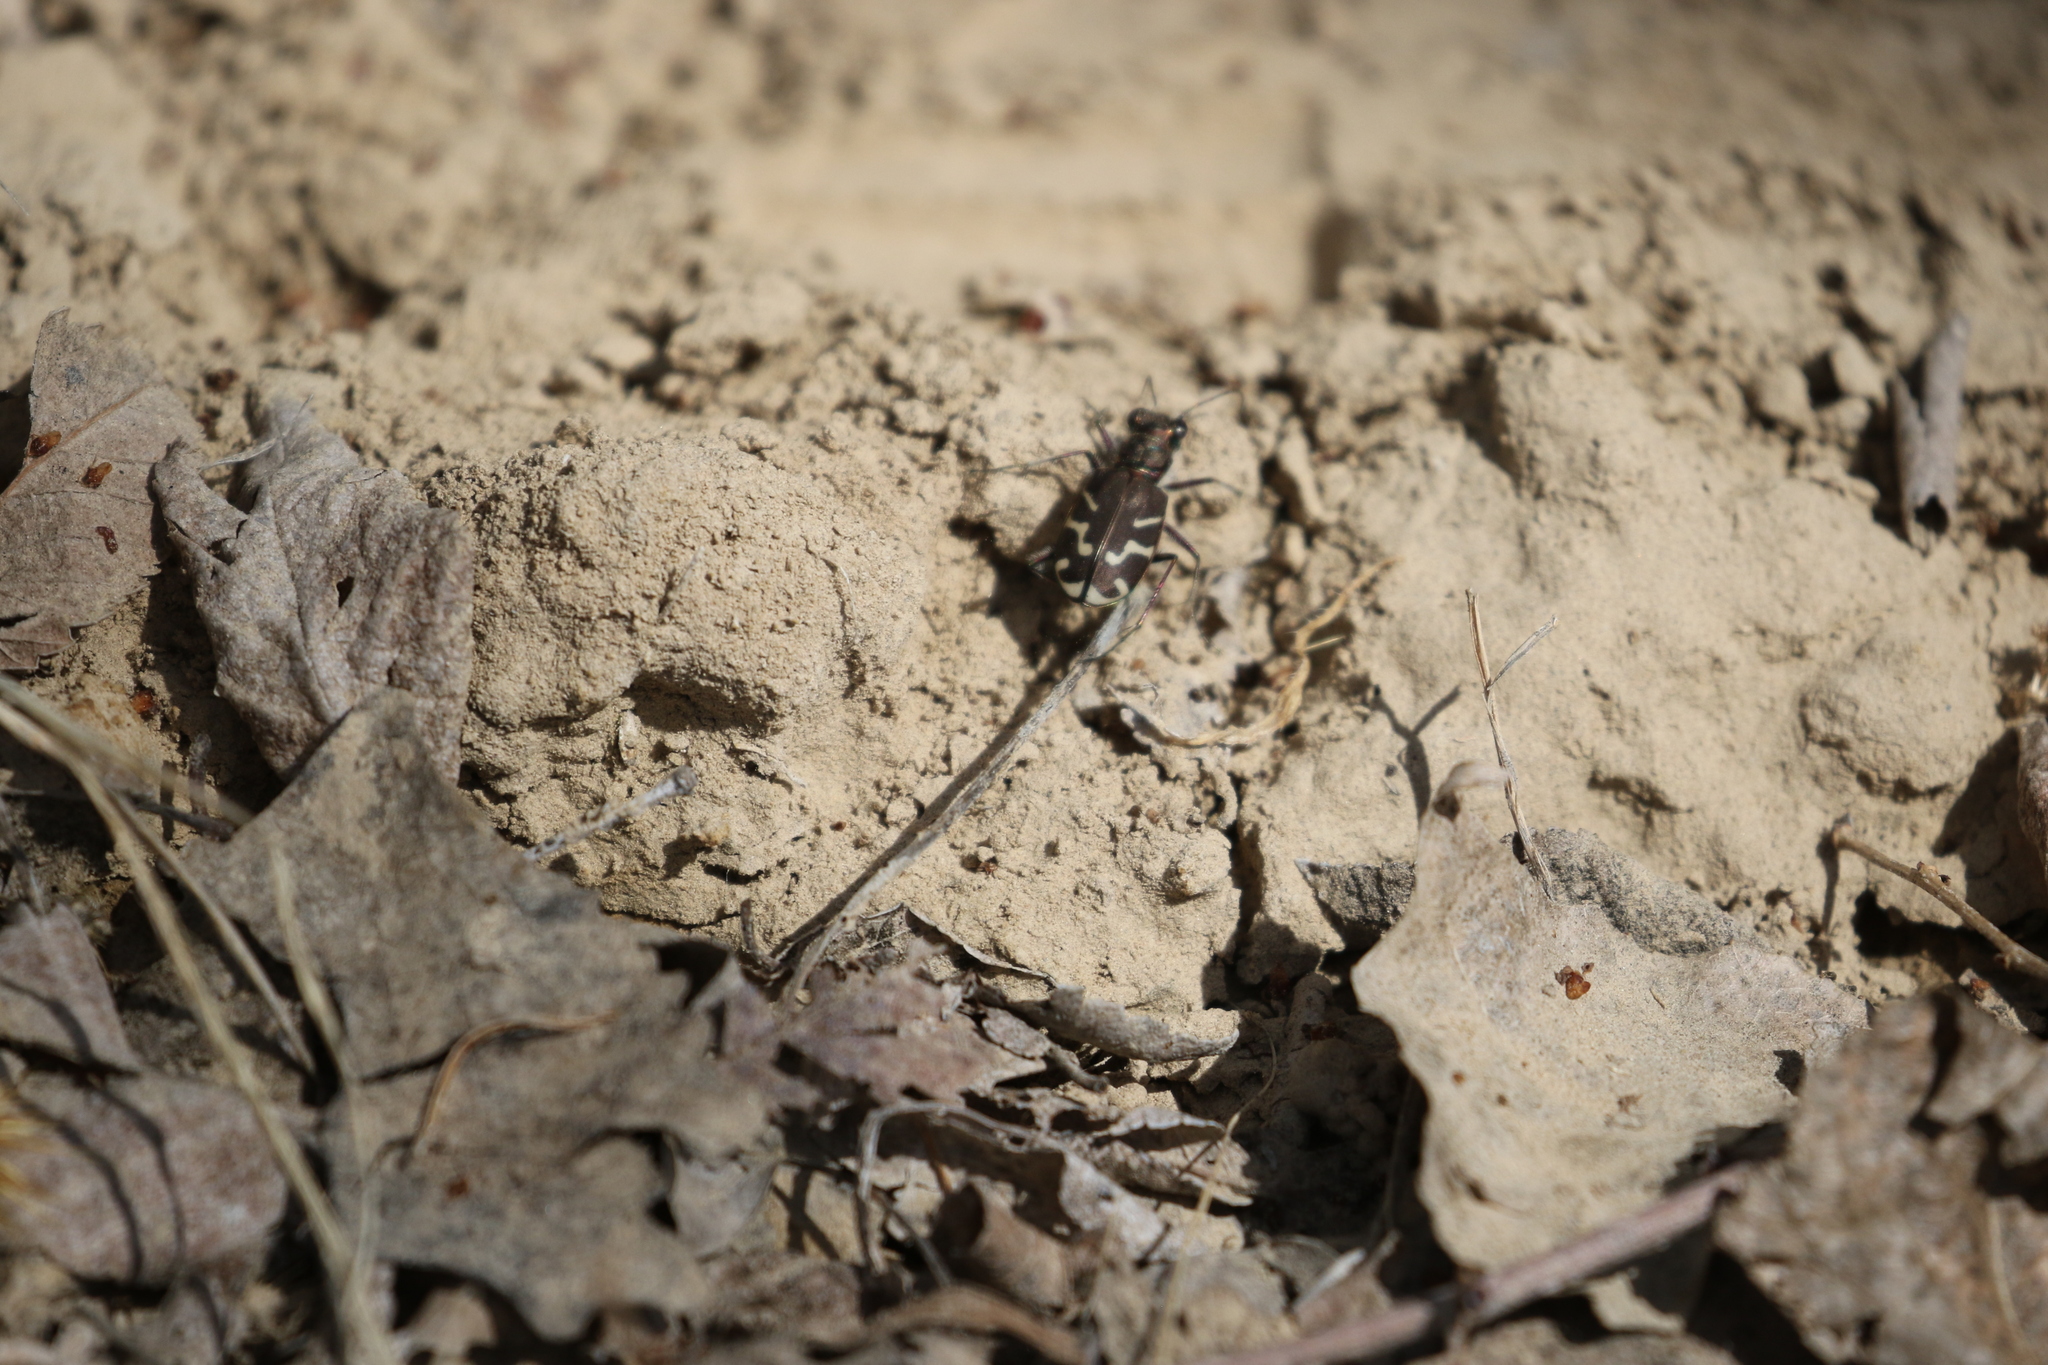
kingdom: Animalia
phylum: Arthropoda
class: Insecta
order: Coleoptera
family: Carabidae
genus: Cicindela
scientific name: Cicindela tranquebarica
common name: Oblique-lined tiger beetle
